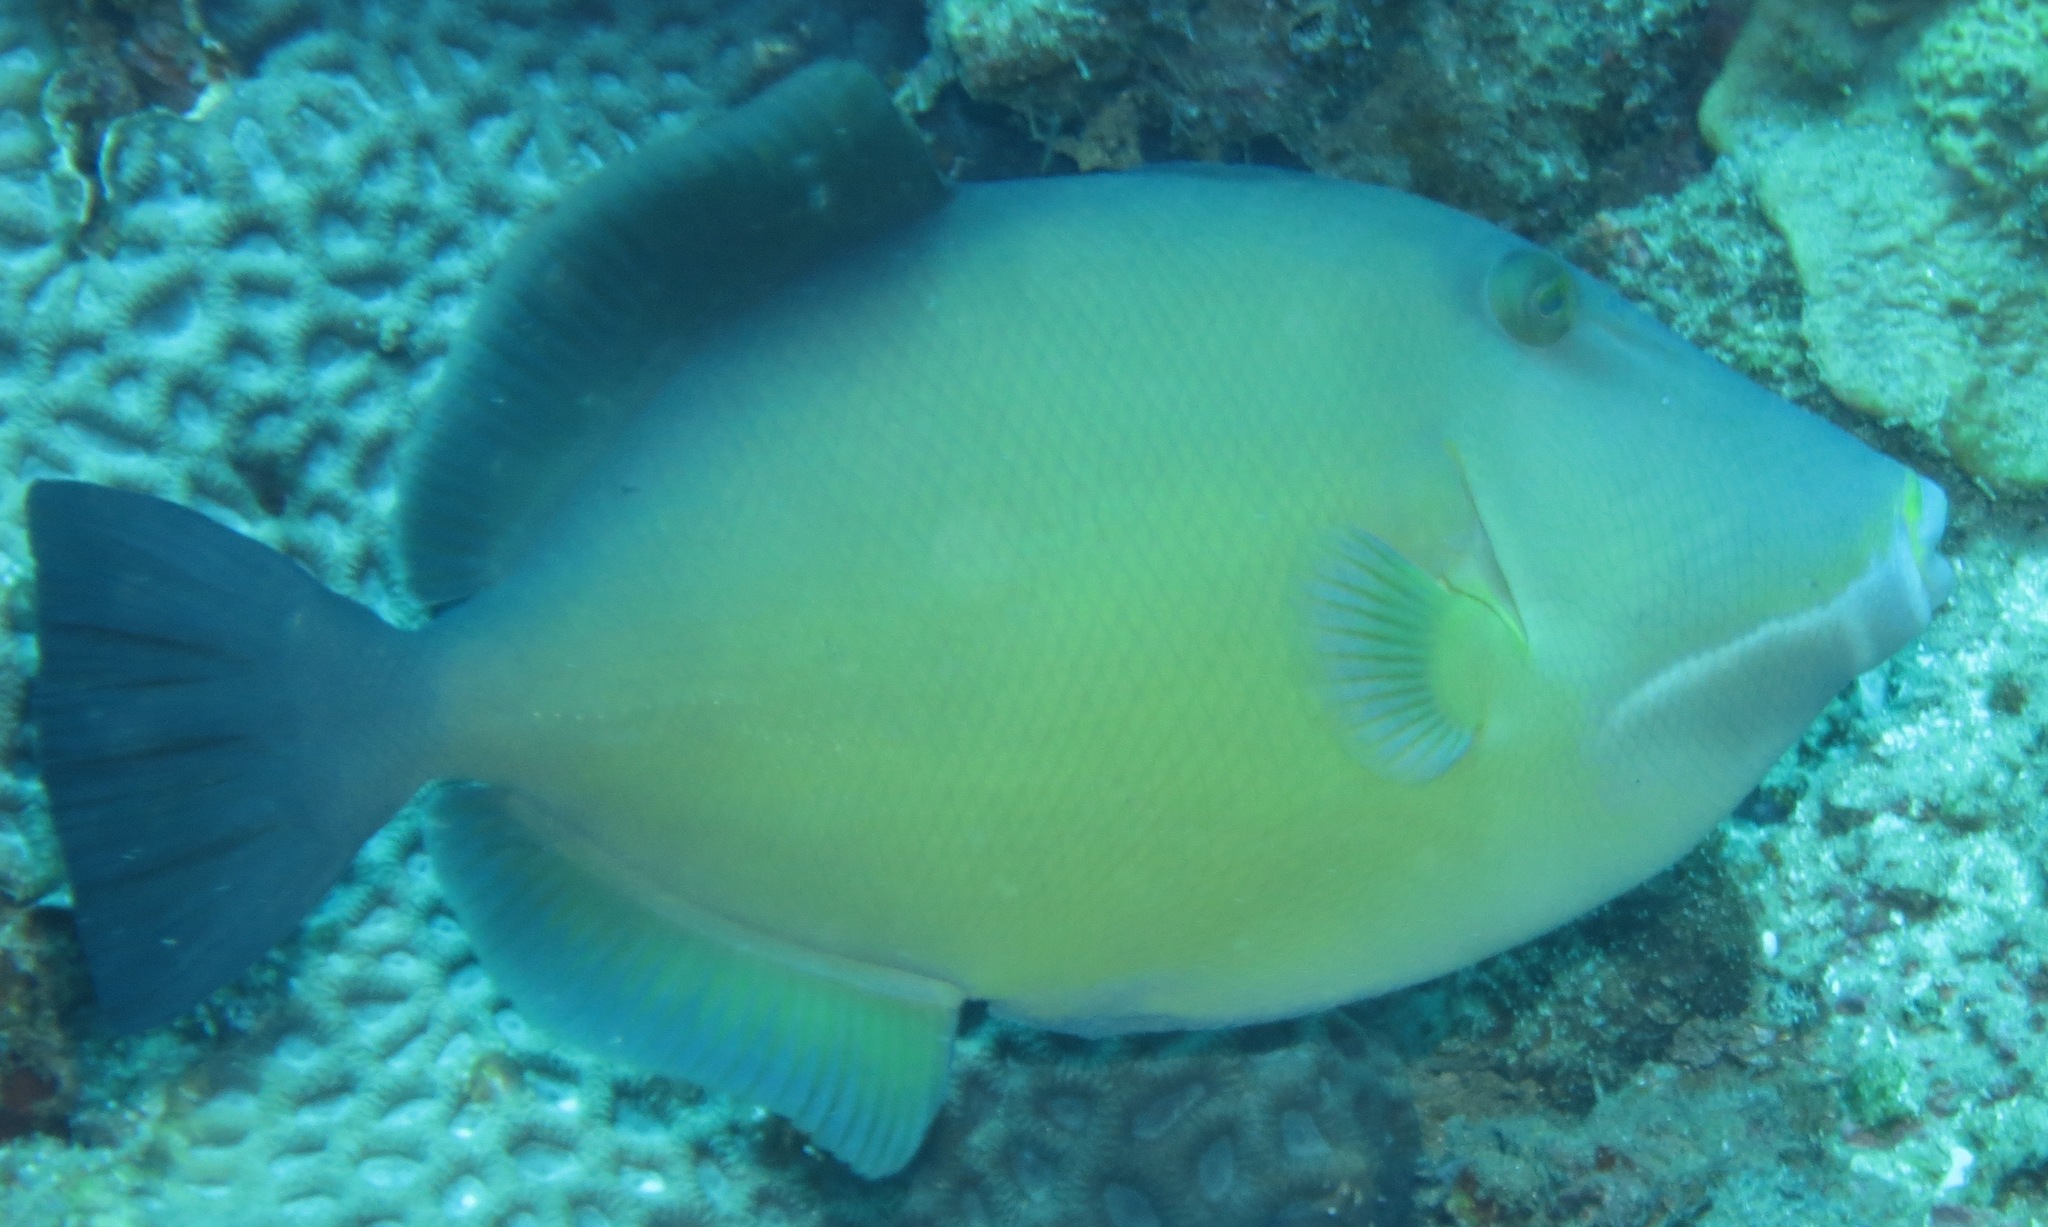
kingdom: Animalia
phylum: Chordata
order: Tetraodontiformes
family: Balistidae
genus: Sufflamen
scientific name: Sufflamen fraenatum
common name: Bridle triggerfish
